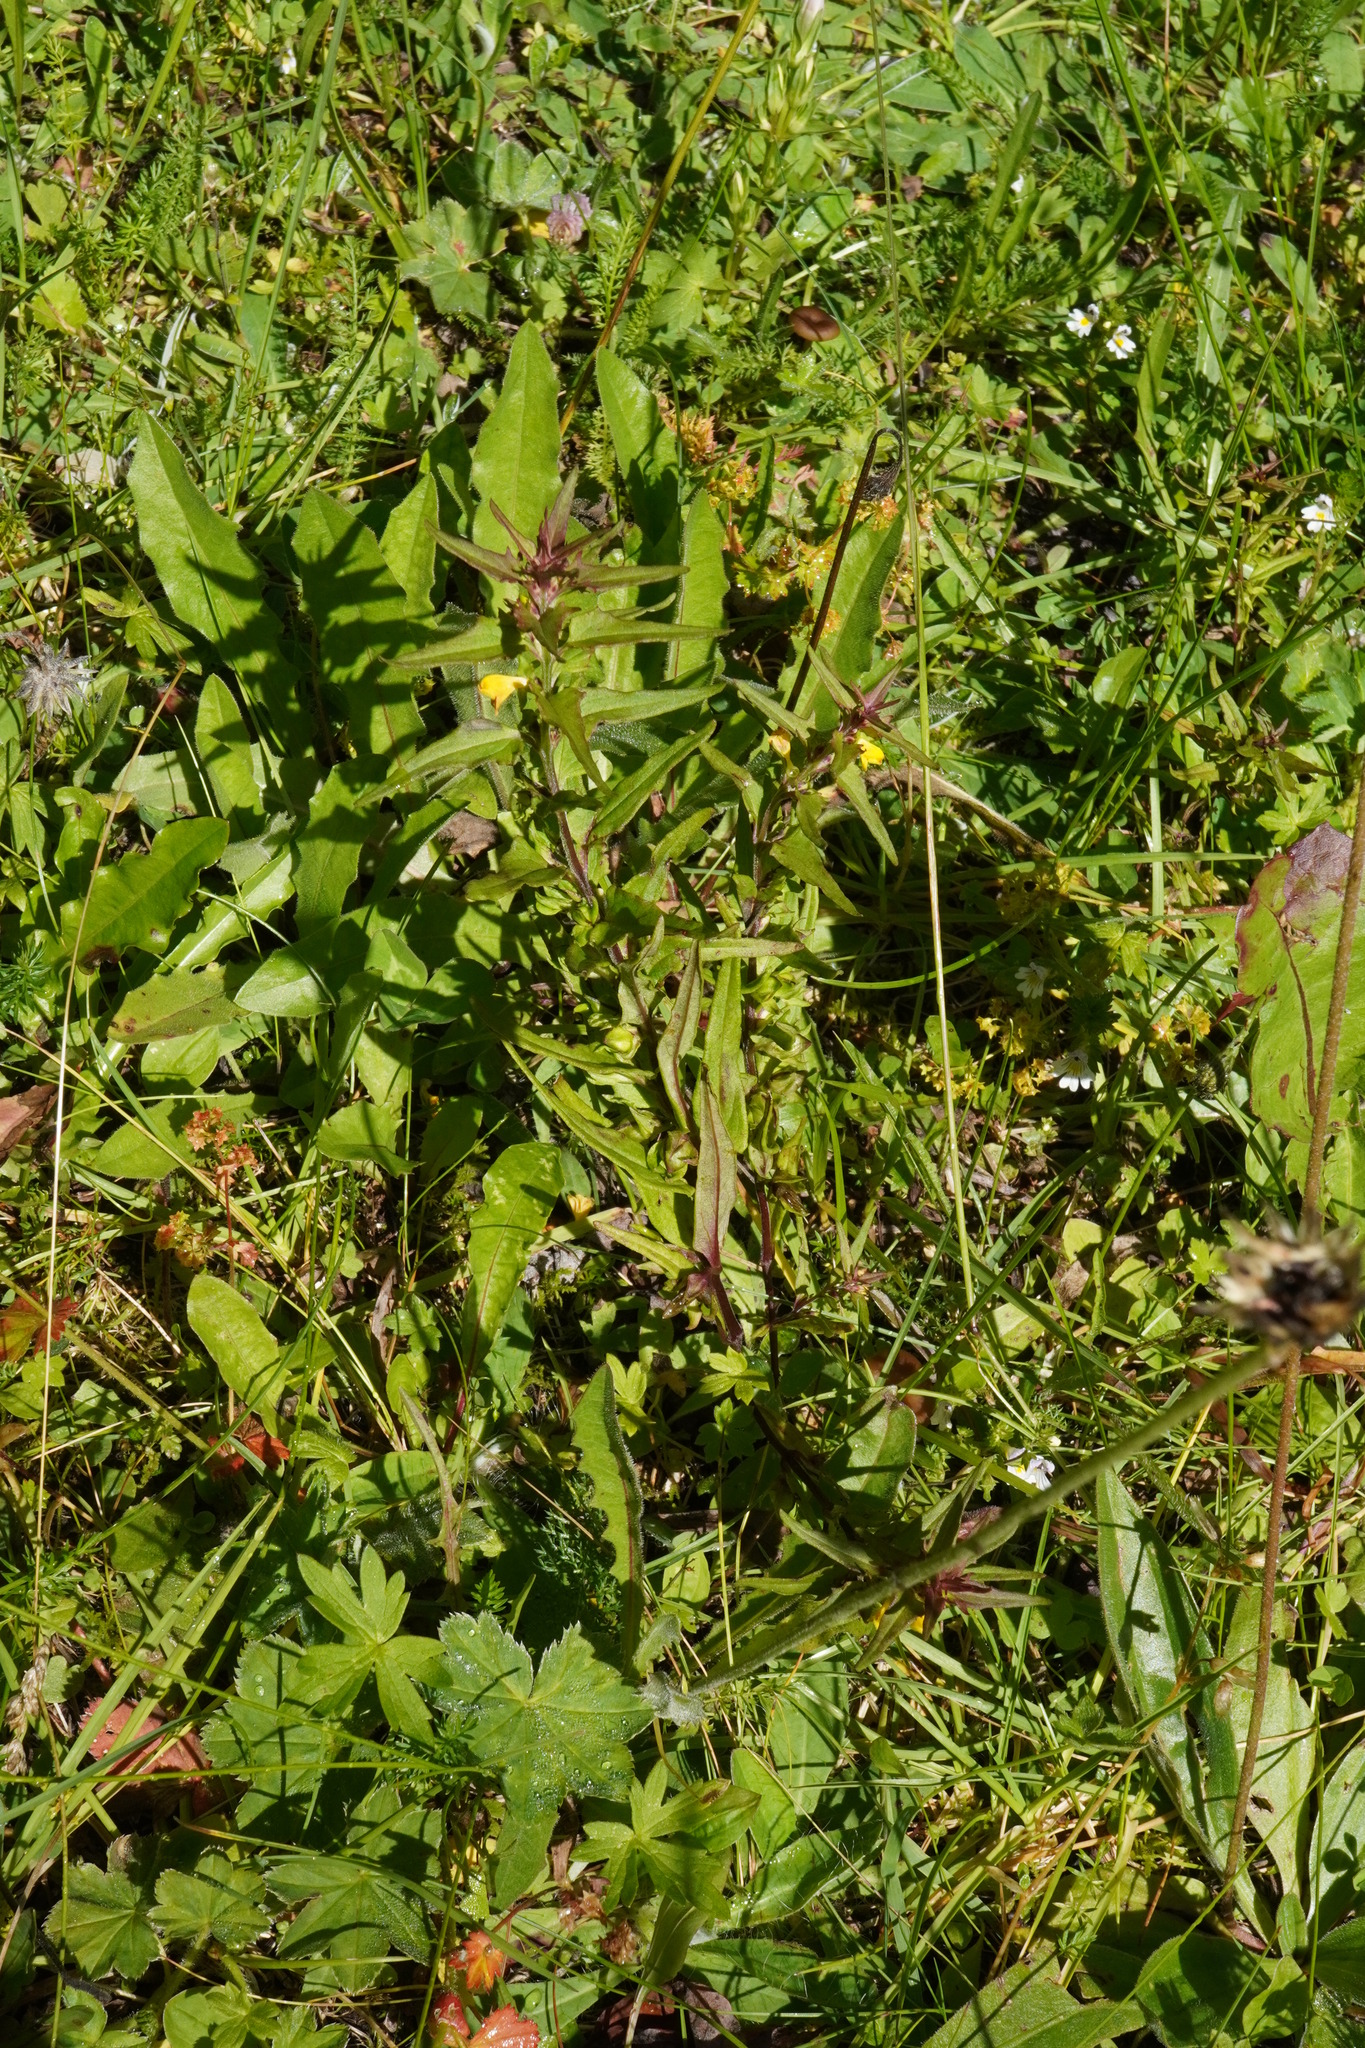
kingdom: Plantae
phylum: Tracheophyta
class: Magnoliopsida
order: Lamiales
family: Orobanchaceae
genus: Melampyrum
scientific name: Melampyrum sylvaticum
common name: Small cow-wheat
